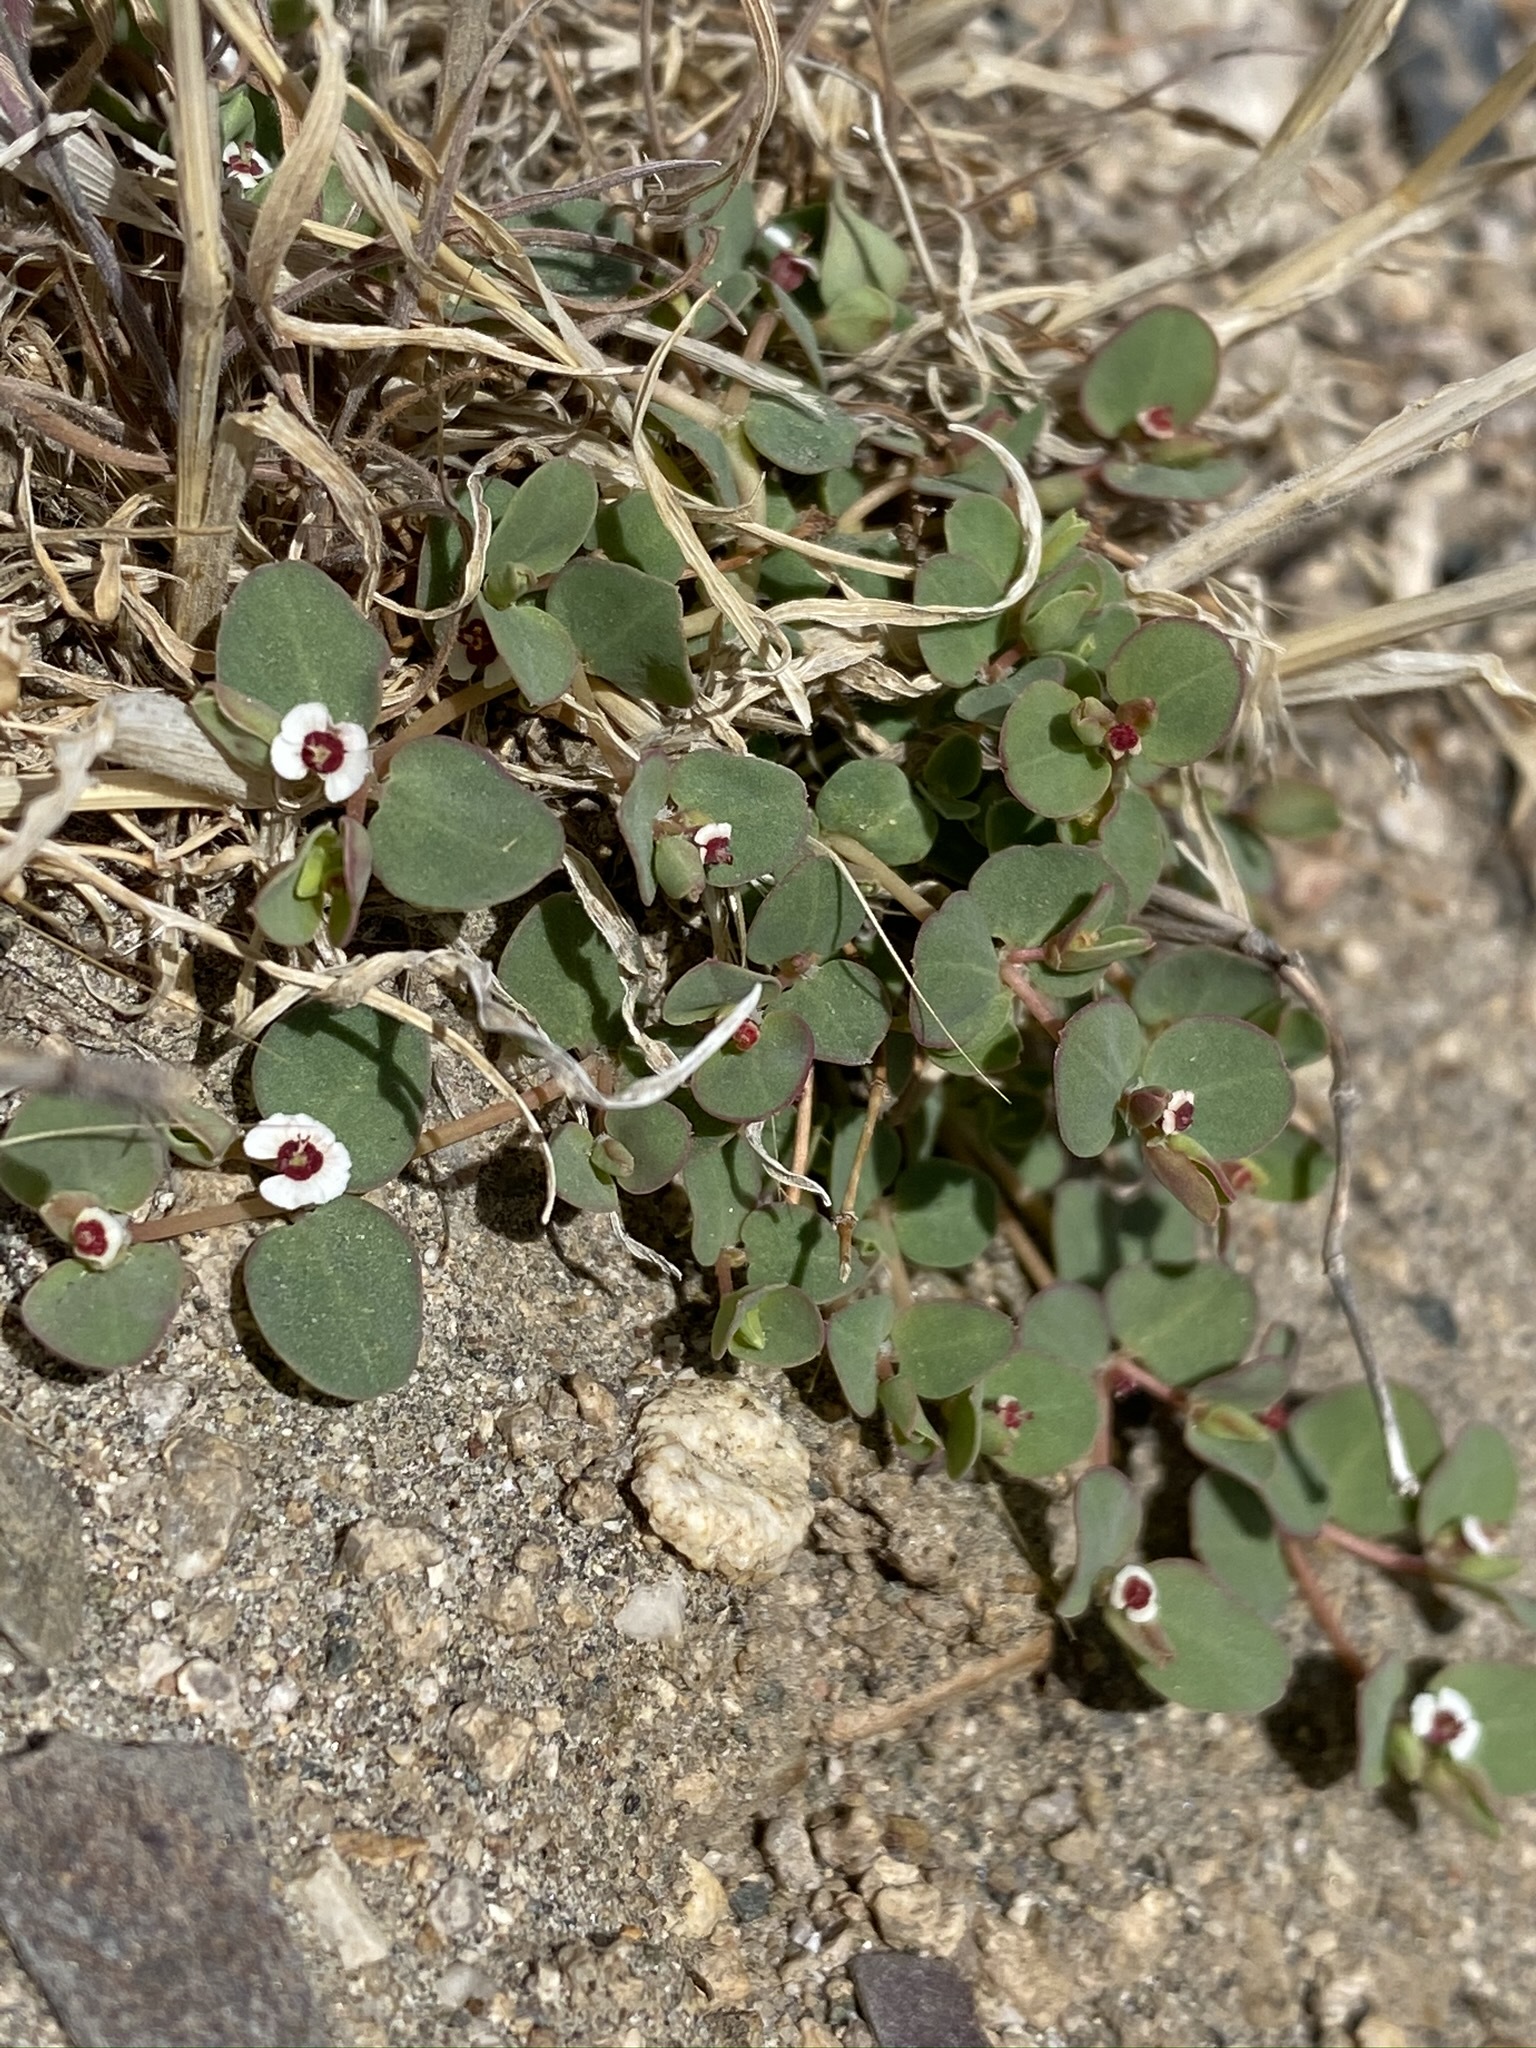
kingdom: Plantae
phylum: Tracheophyta
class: Magnoliopsida
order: Malpighiales
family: Euphorbiaceae
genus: Euphorbia
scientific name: Euphorbia albomarginata
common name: Whitemargin sandmat
